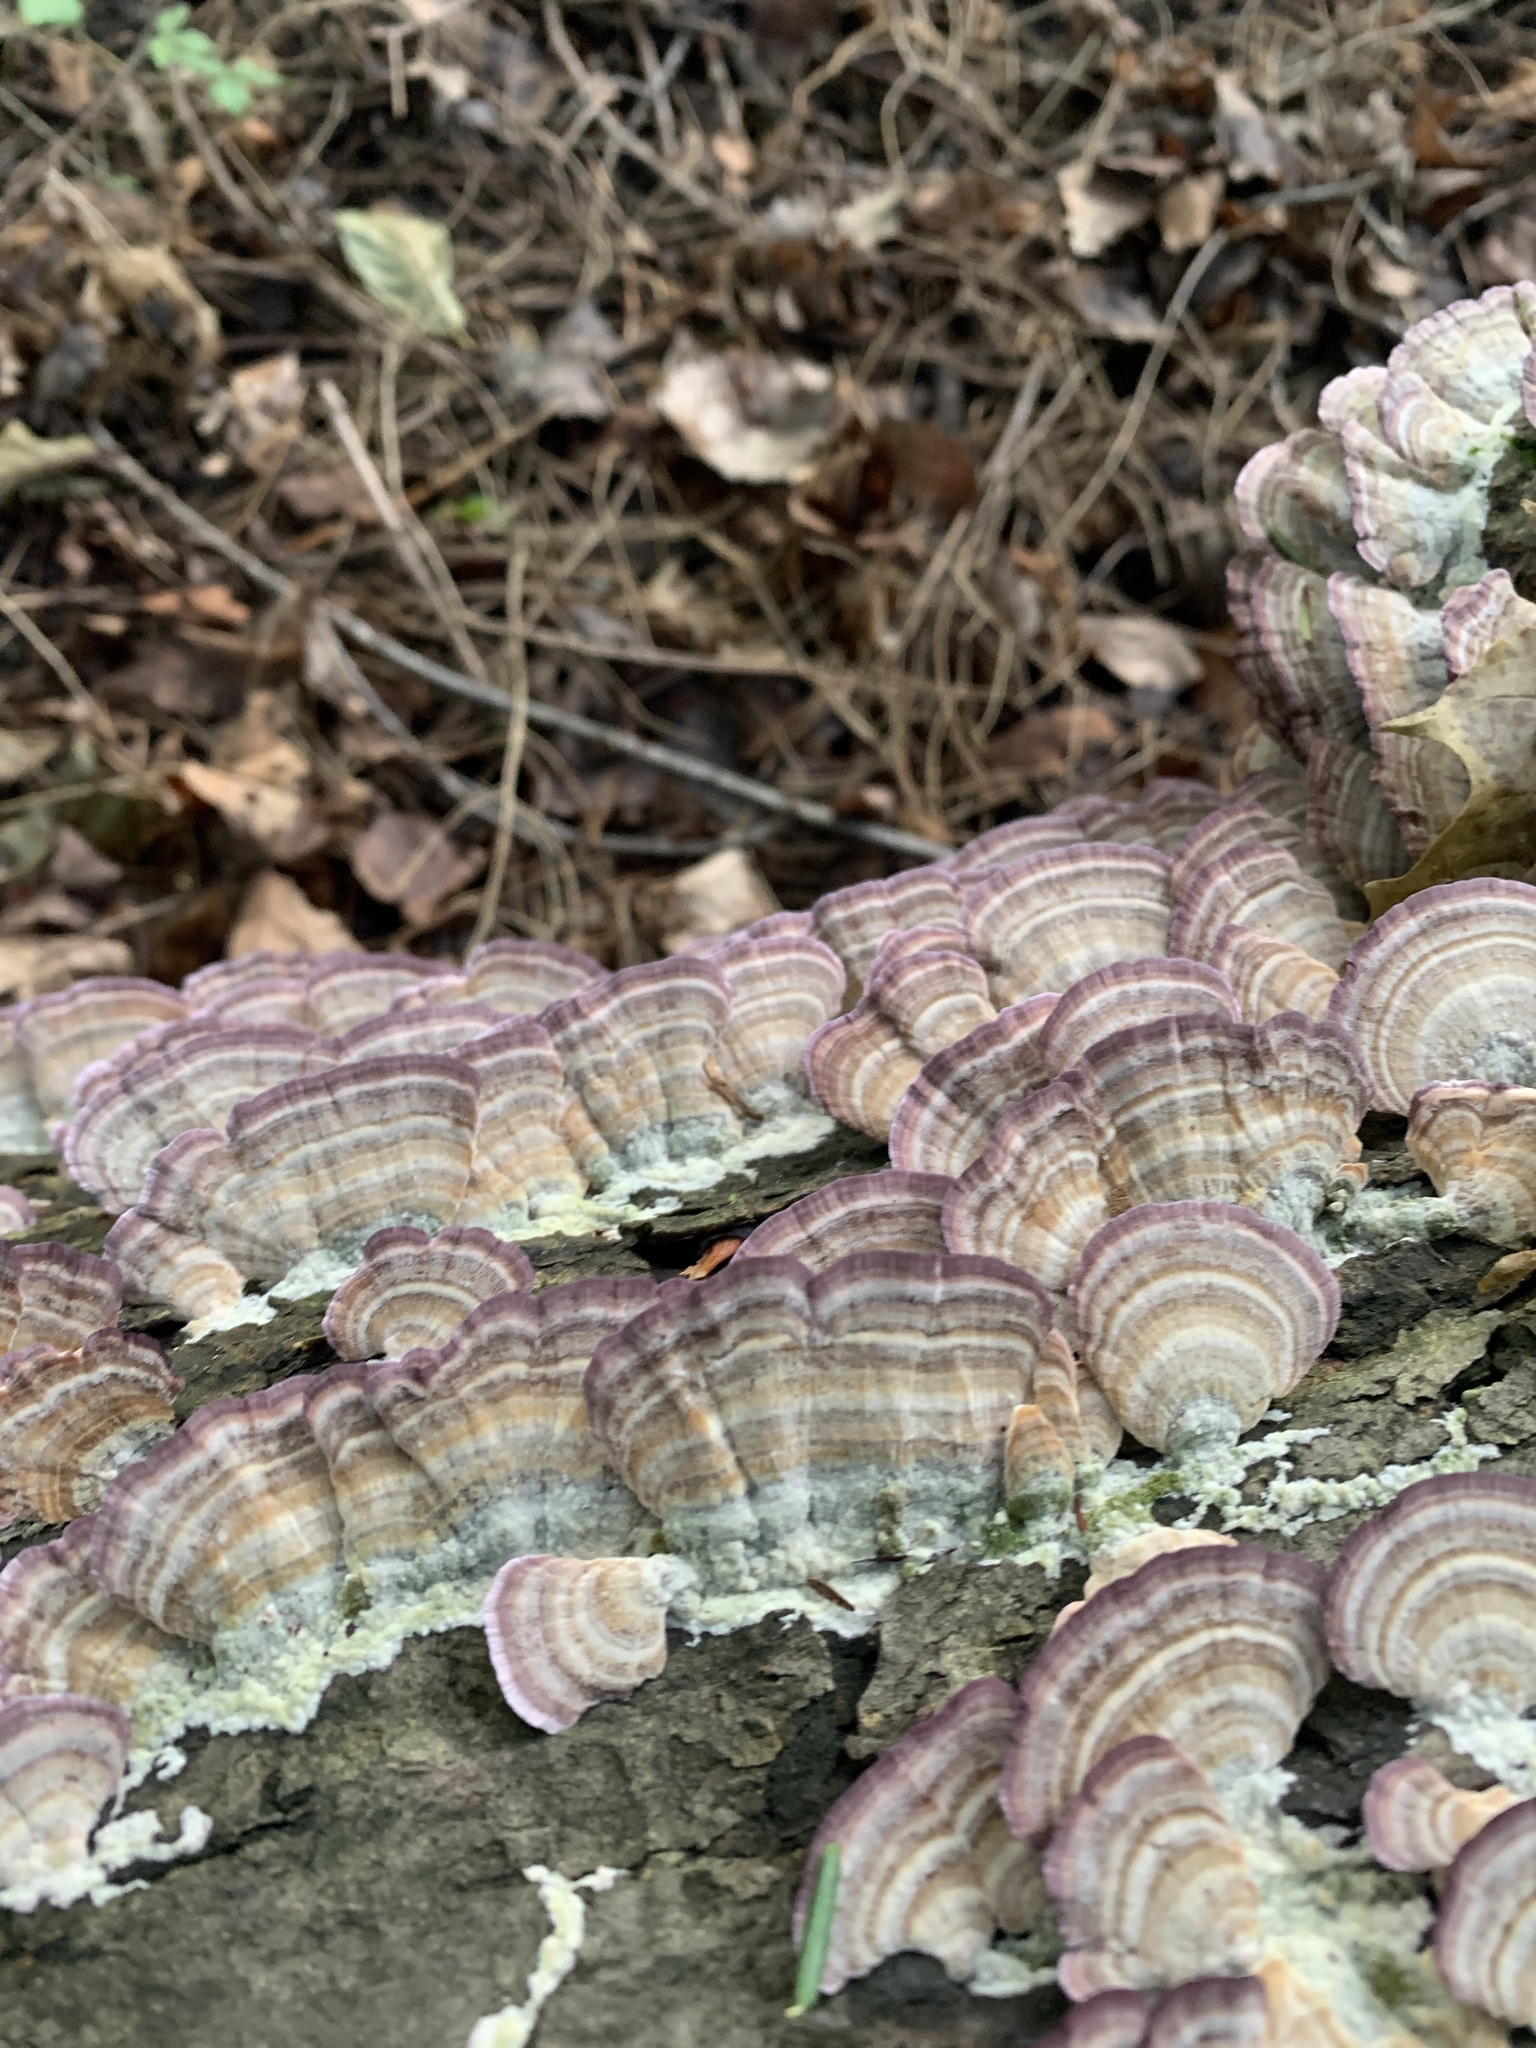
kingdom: Fungi
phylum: Basidiomycota
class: Agaricomycetes
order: Hymenochaetales
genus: Trichaptum
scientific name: Trichaptum biforme
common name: Violet-toothed polypore
